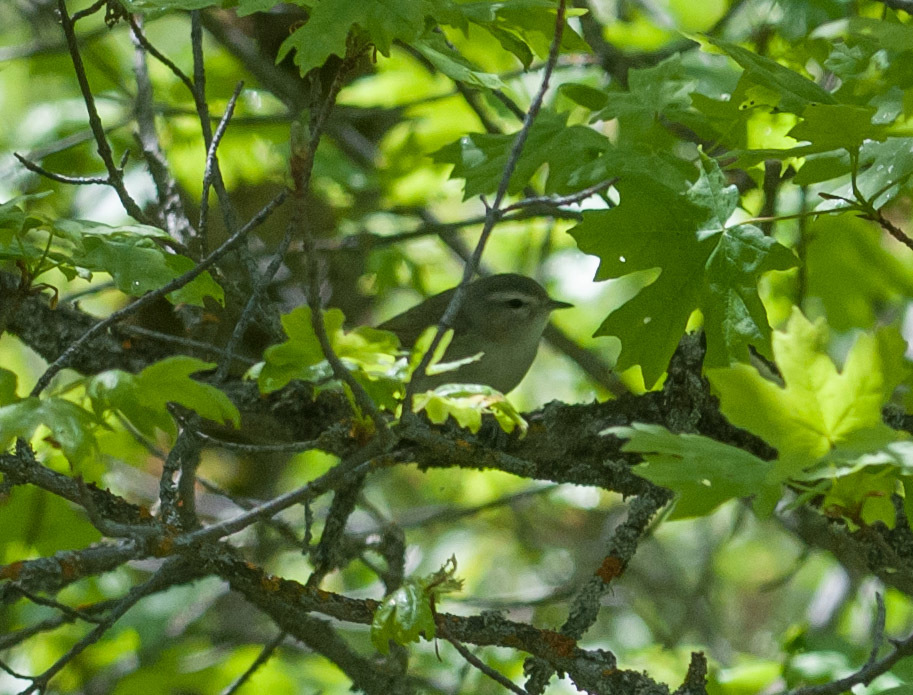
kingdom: Animalia
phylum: Chordata
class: Aves
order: Passeriformes
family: Vireonidae
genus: Vireo
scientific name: Vireo gilvus
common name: Warbling vireo
